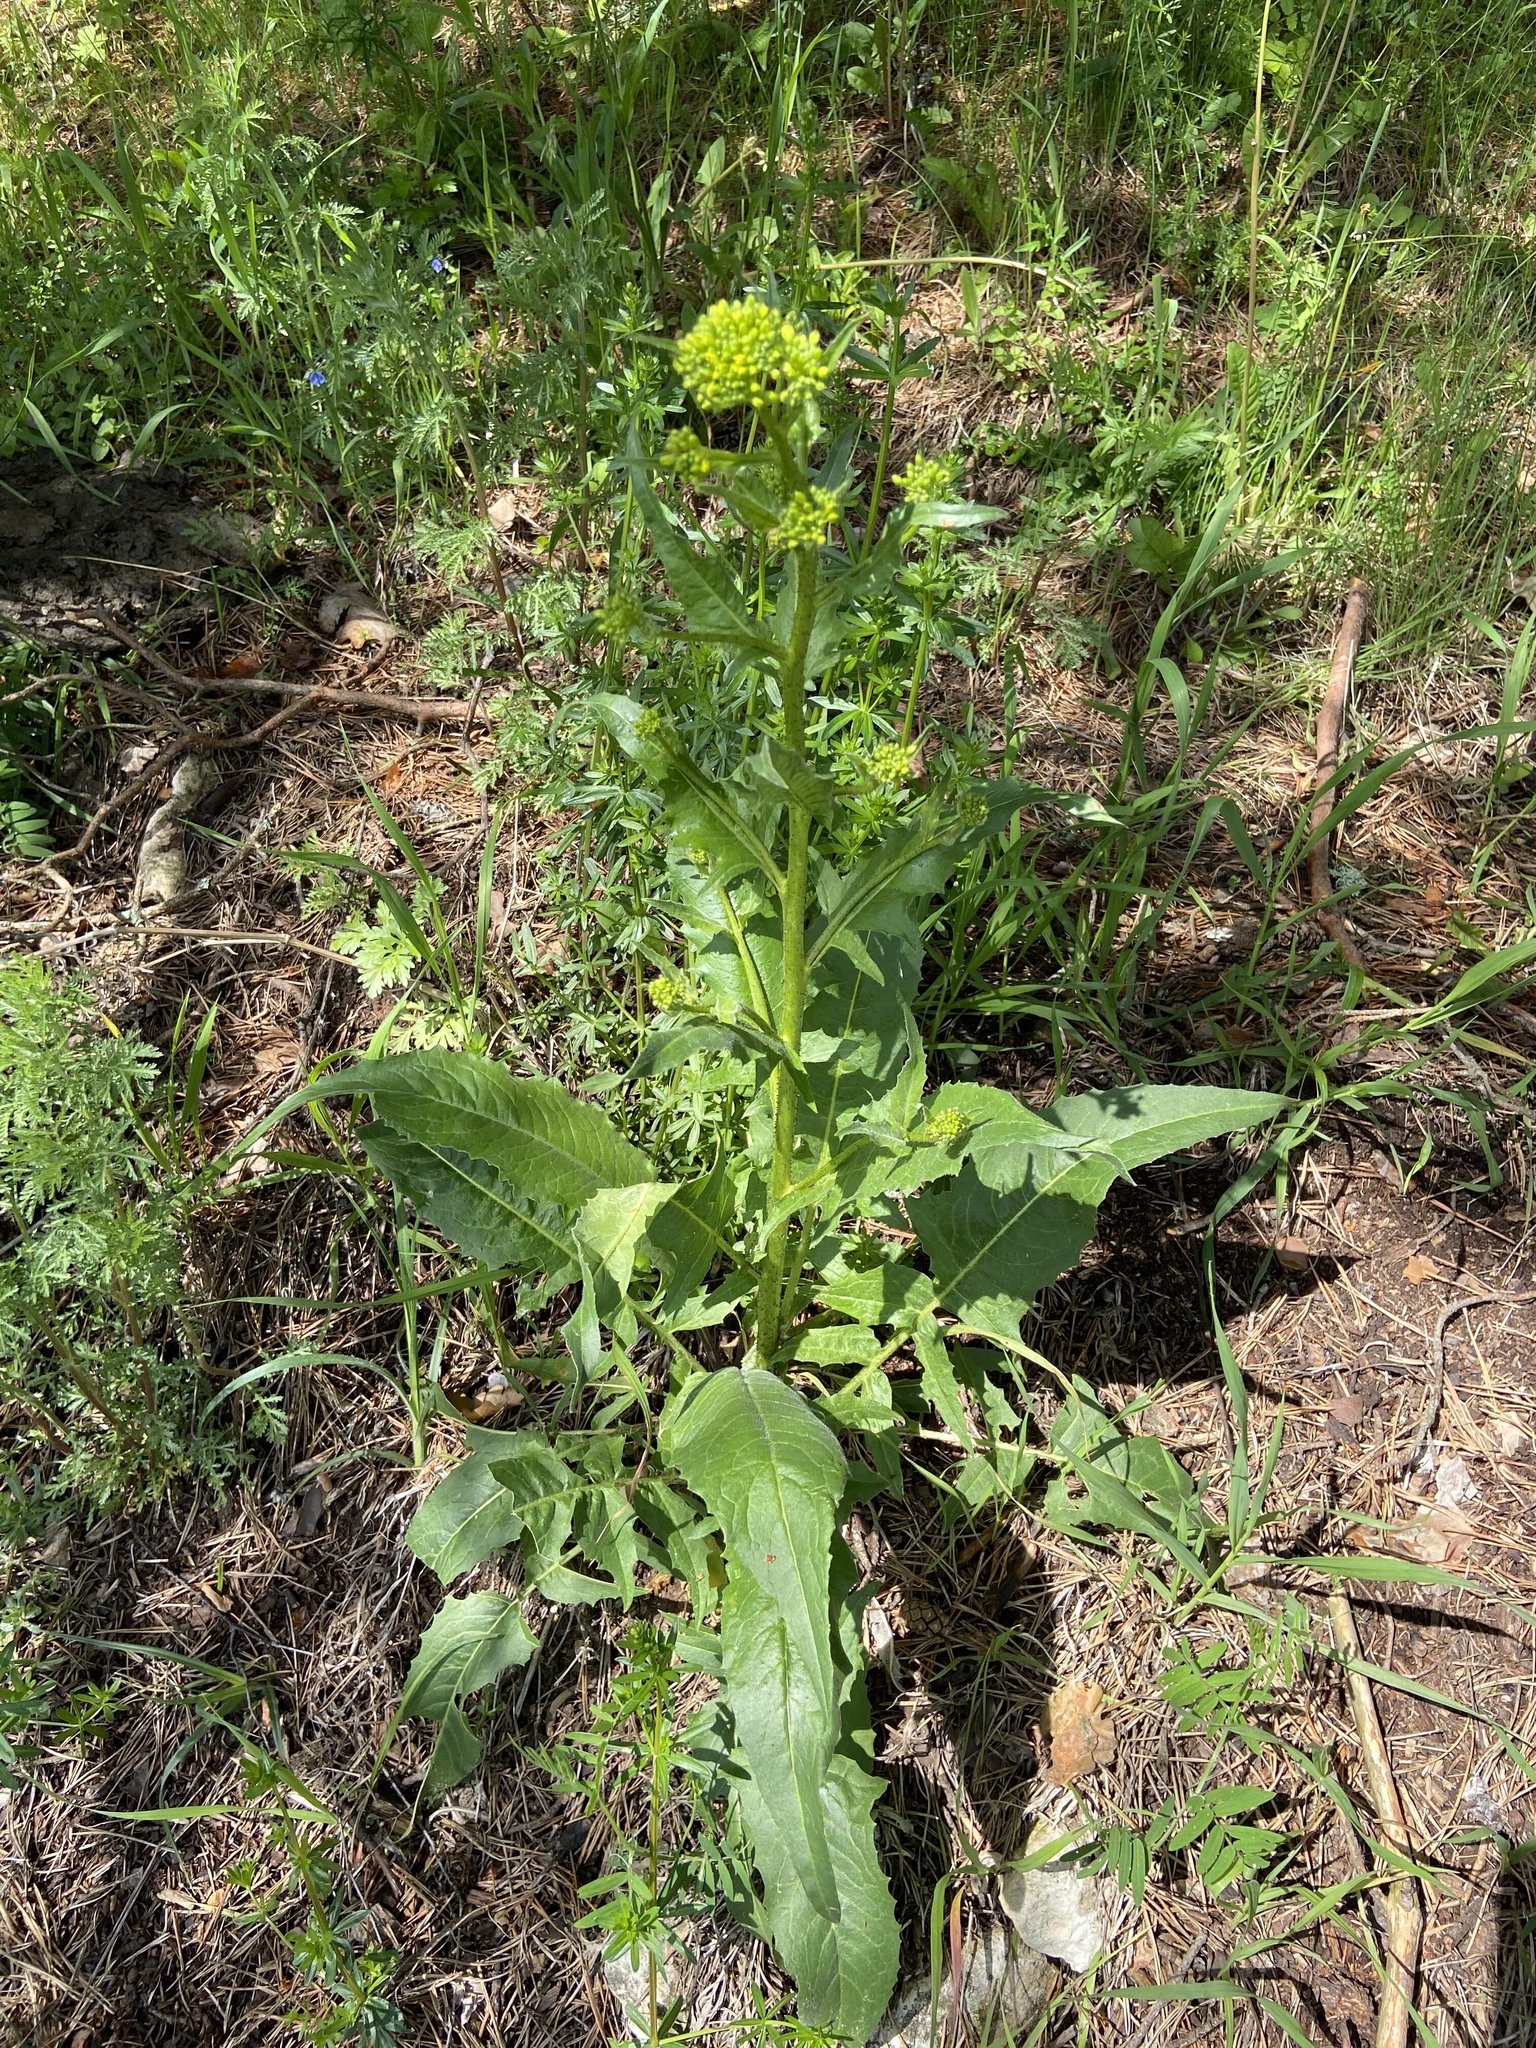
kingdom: Plantae
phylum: Tracheophyta
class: Magnoliopsida
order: Brassicales
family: Brassicaceae
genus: Bunias
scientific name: Bunias orientalis
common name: Warty-cabbage
